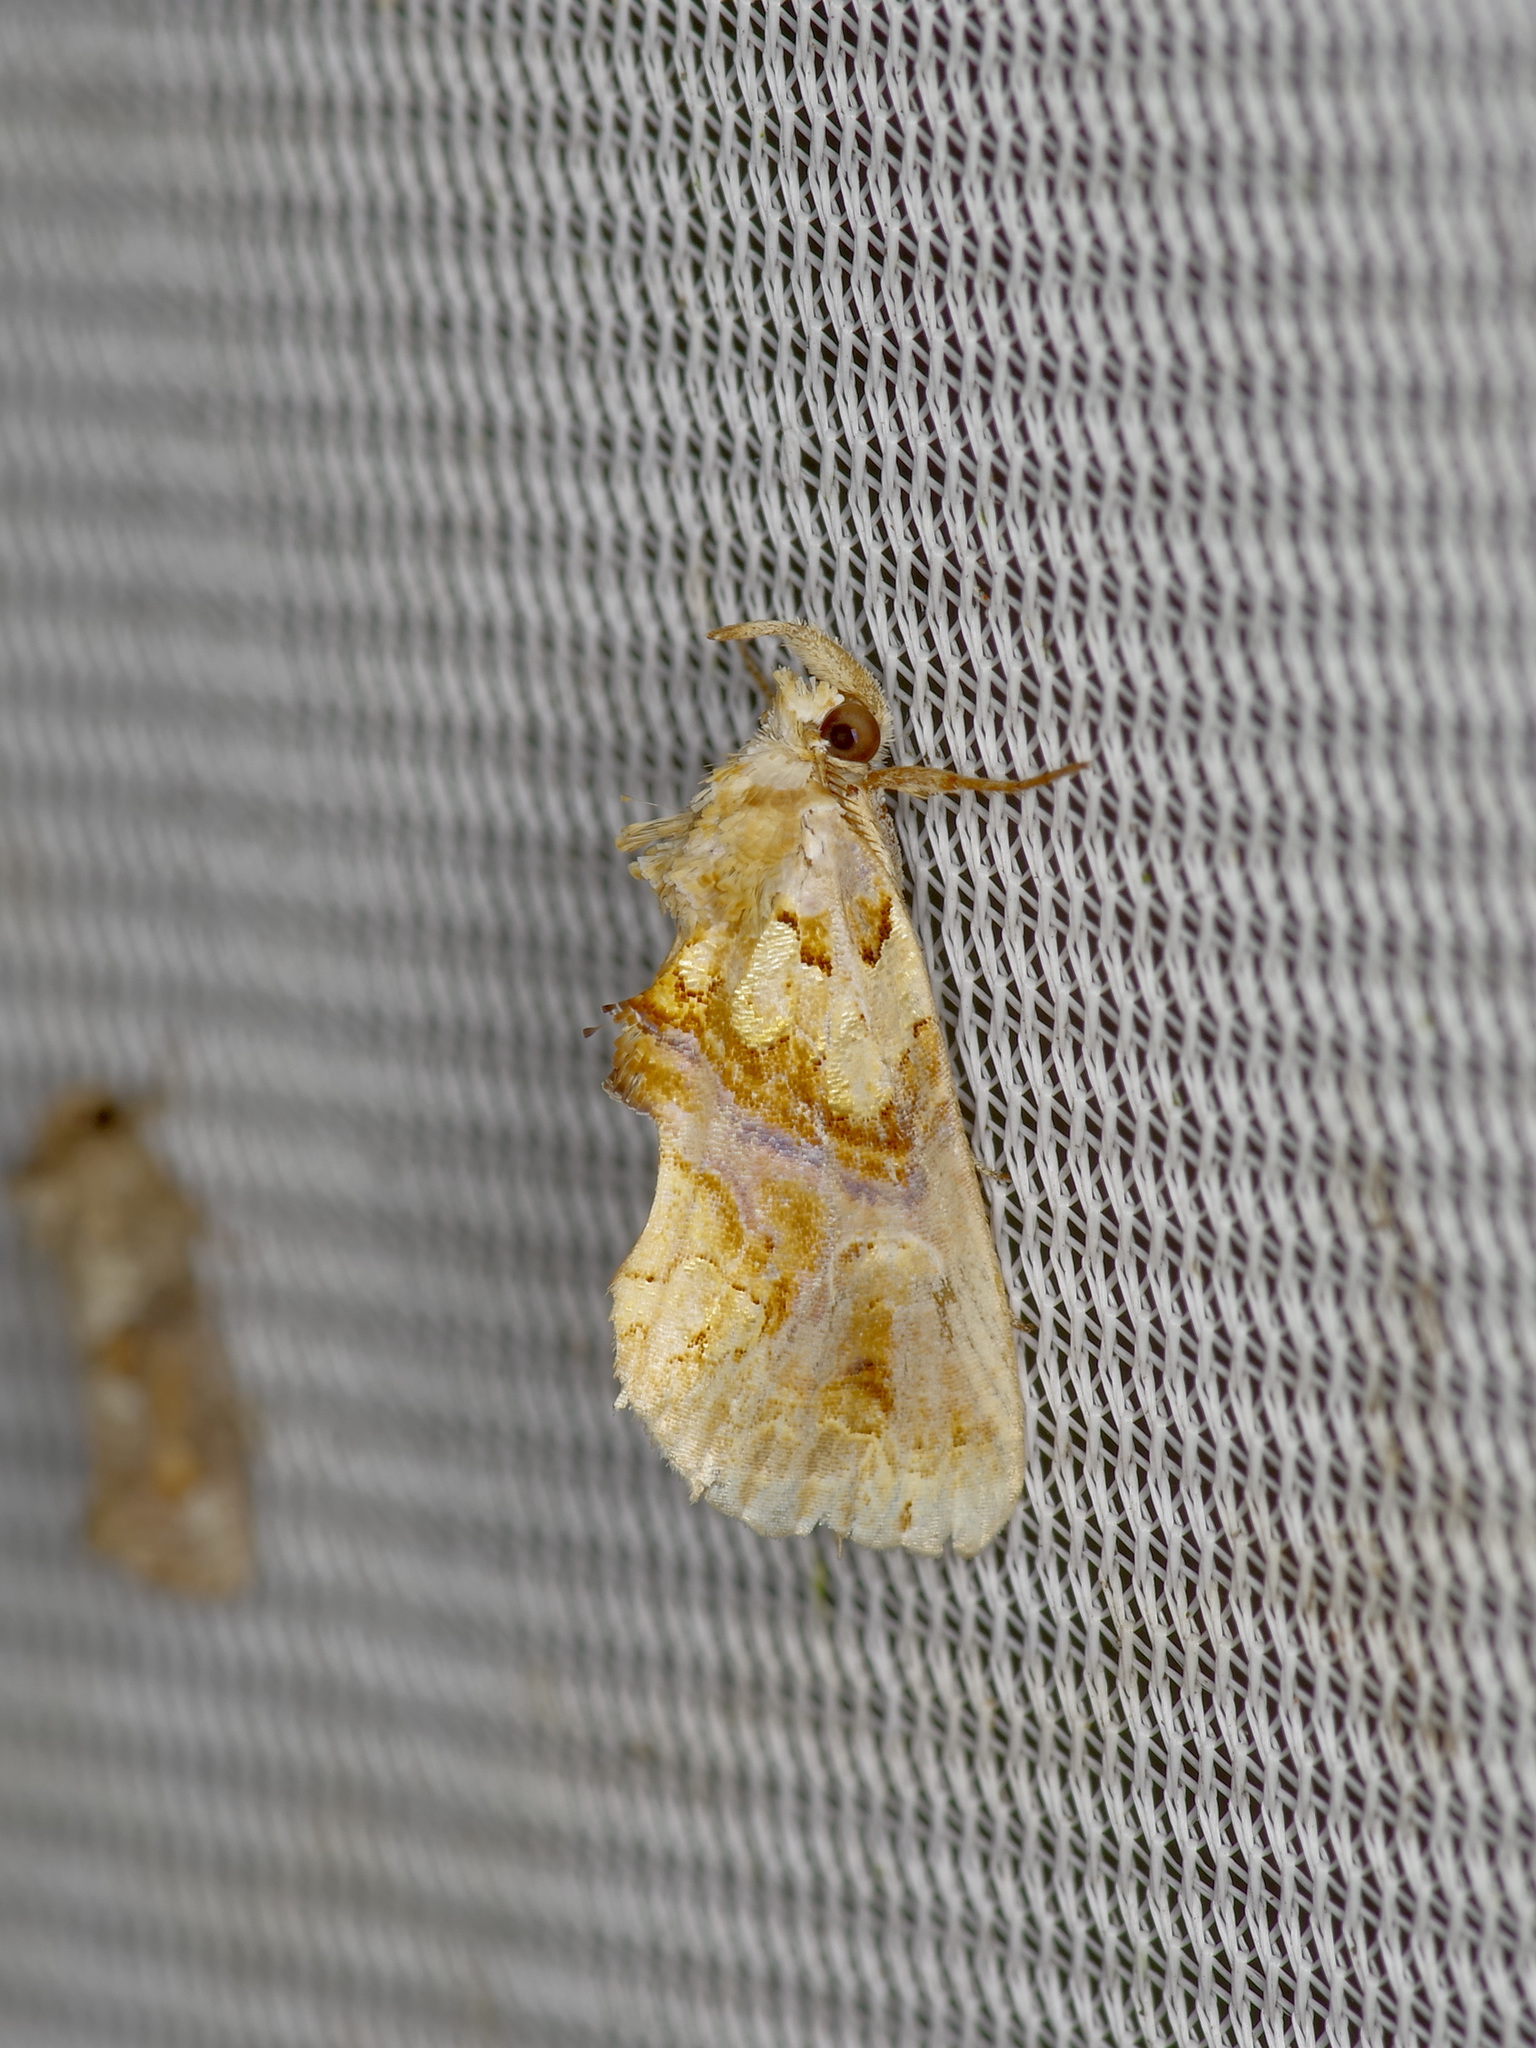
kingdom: Animalia
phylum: Arthropoda
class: Insecta
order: Lepidoptera
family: Erebidae
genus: Plusiodonta
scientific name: Plusiodonta compressipalpis
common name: Moonseed moth
